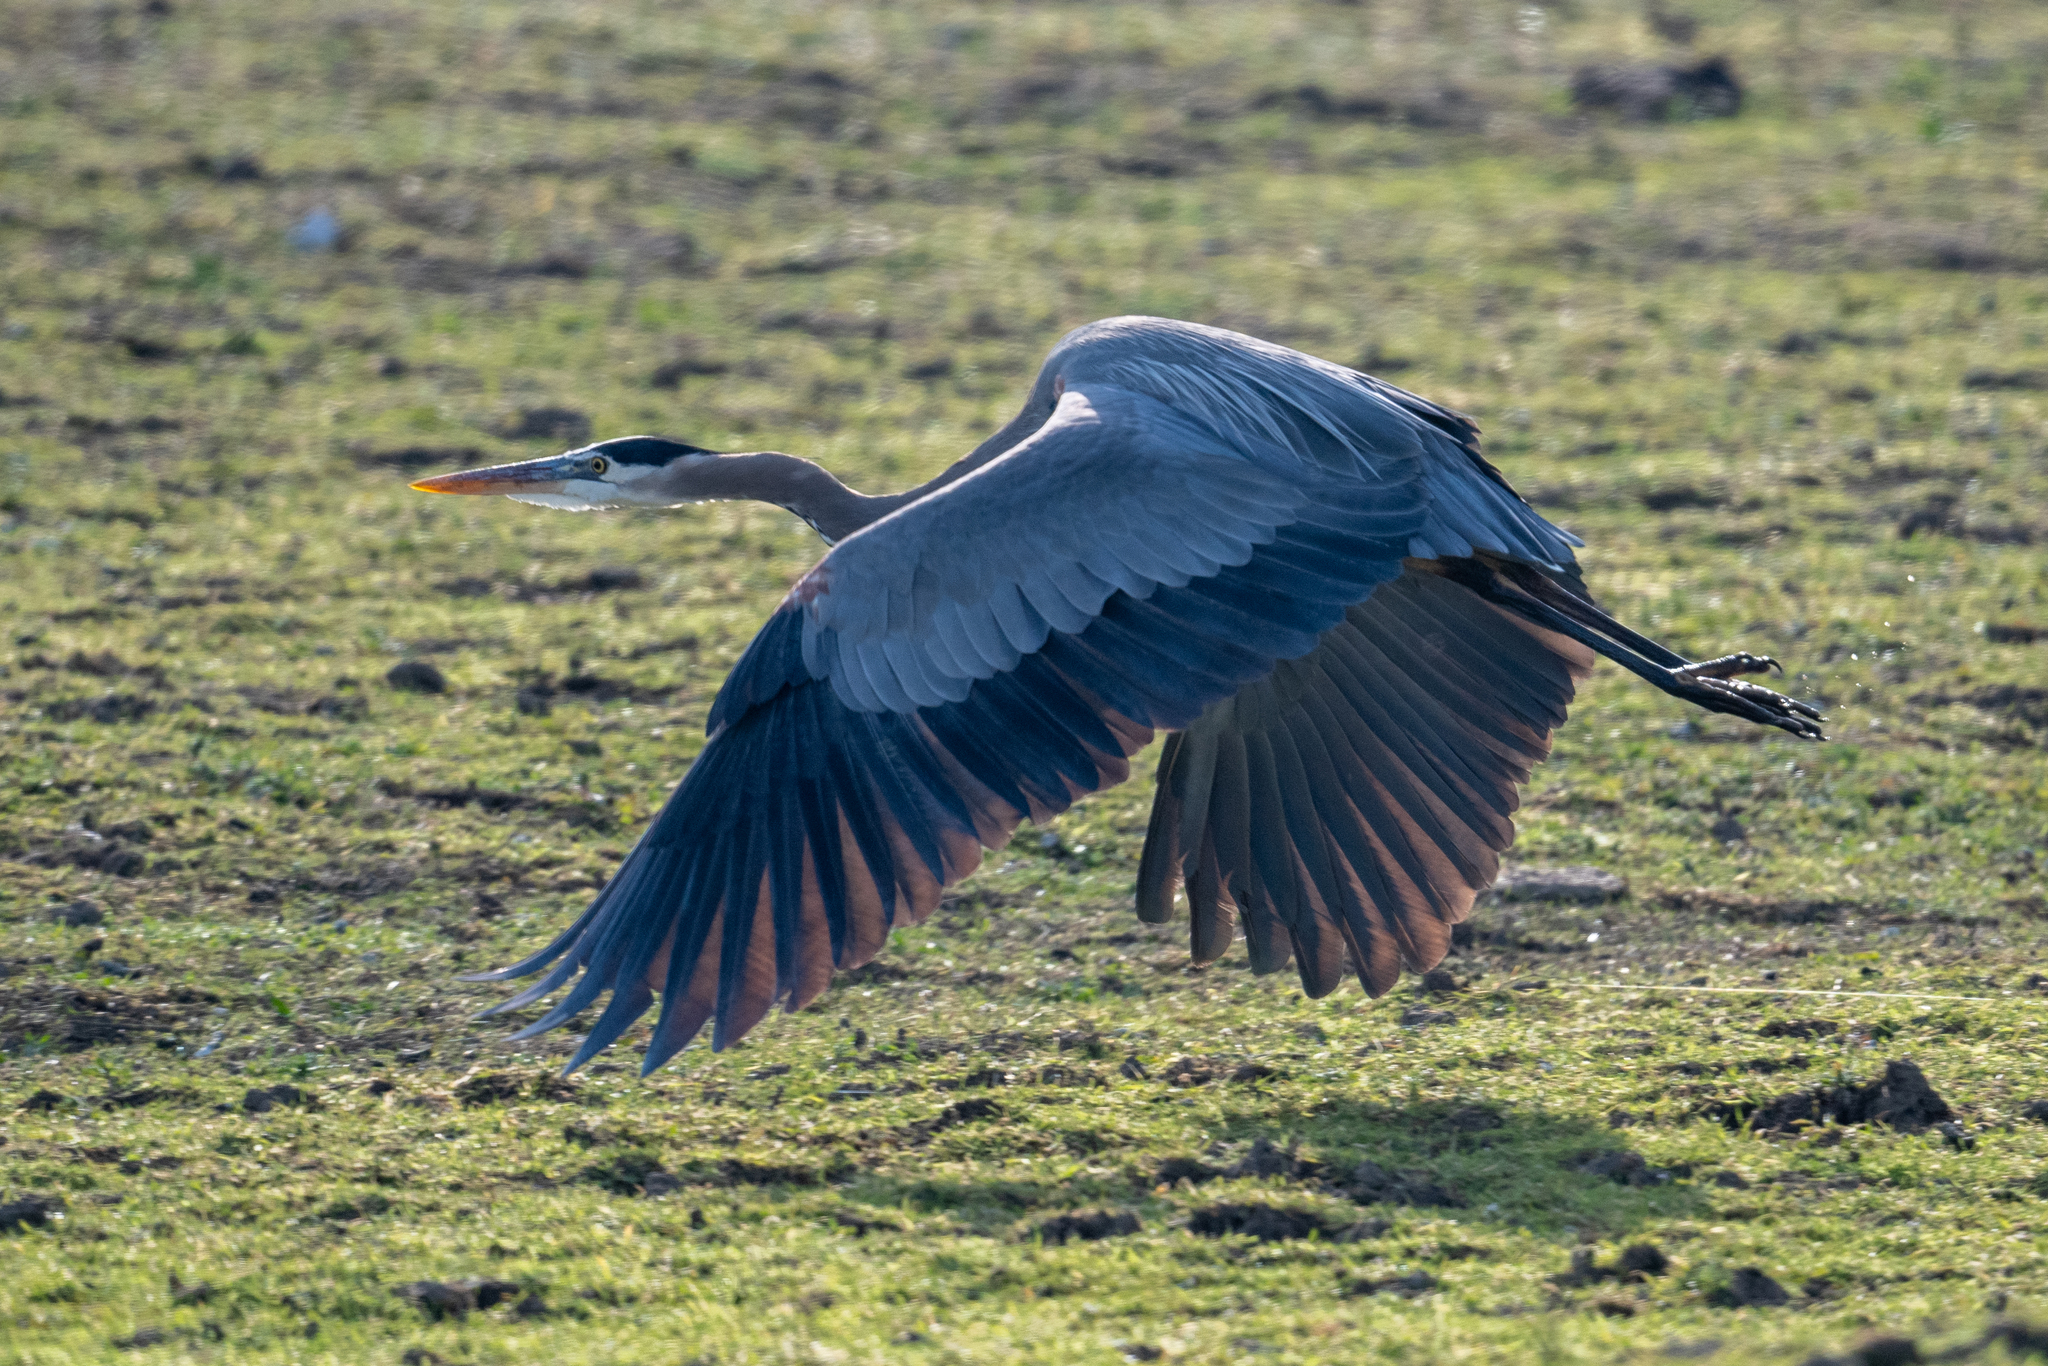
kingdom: Animalia
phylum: Chordata
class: Aves
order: Pelecaniformes
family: Ardeidae
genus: Ardea
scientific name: Ardea herodias
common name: Great blue heron
